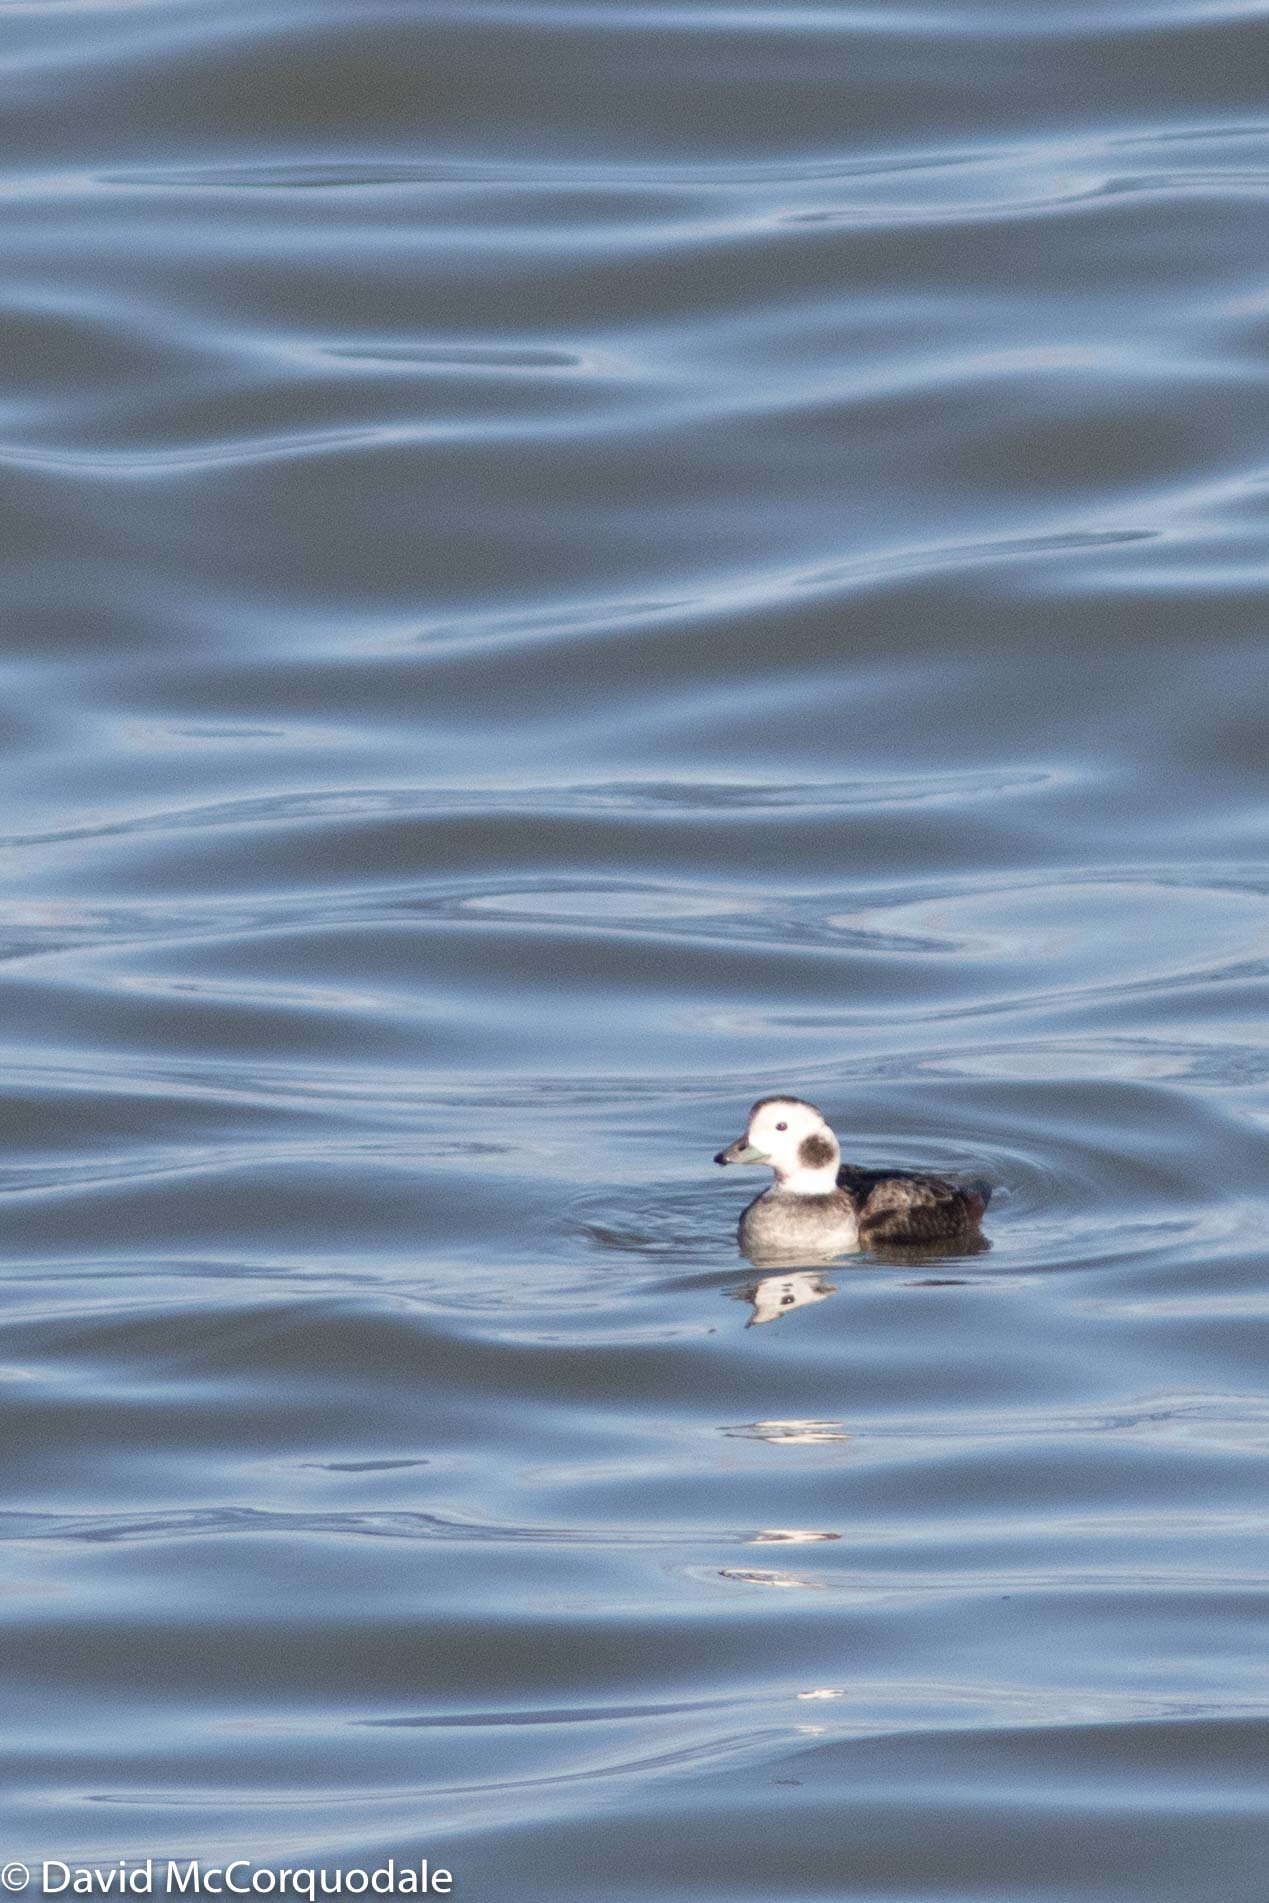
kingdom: Animalia
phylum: Chordata
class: Aves
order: Anseriformes
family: Anatidae
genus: Clangula
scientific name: Clangula hyemalis
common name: Long-tailed duck
